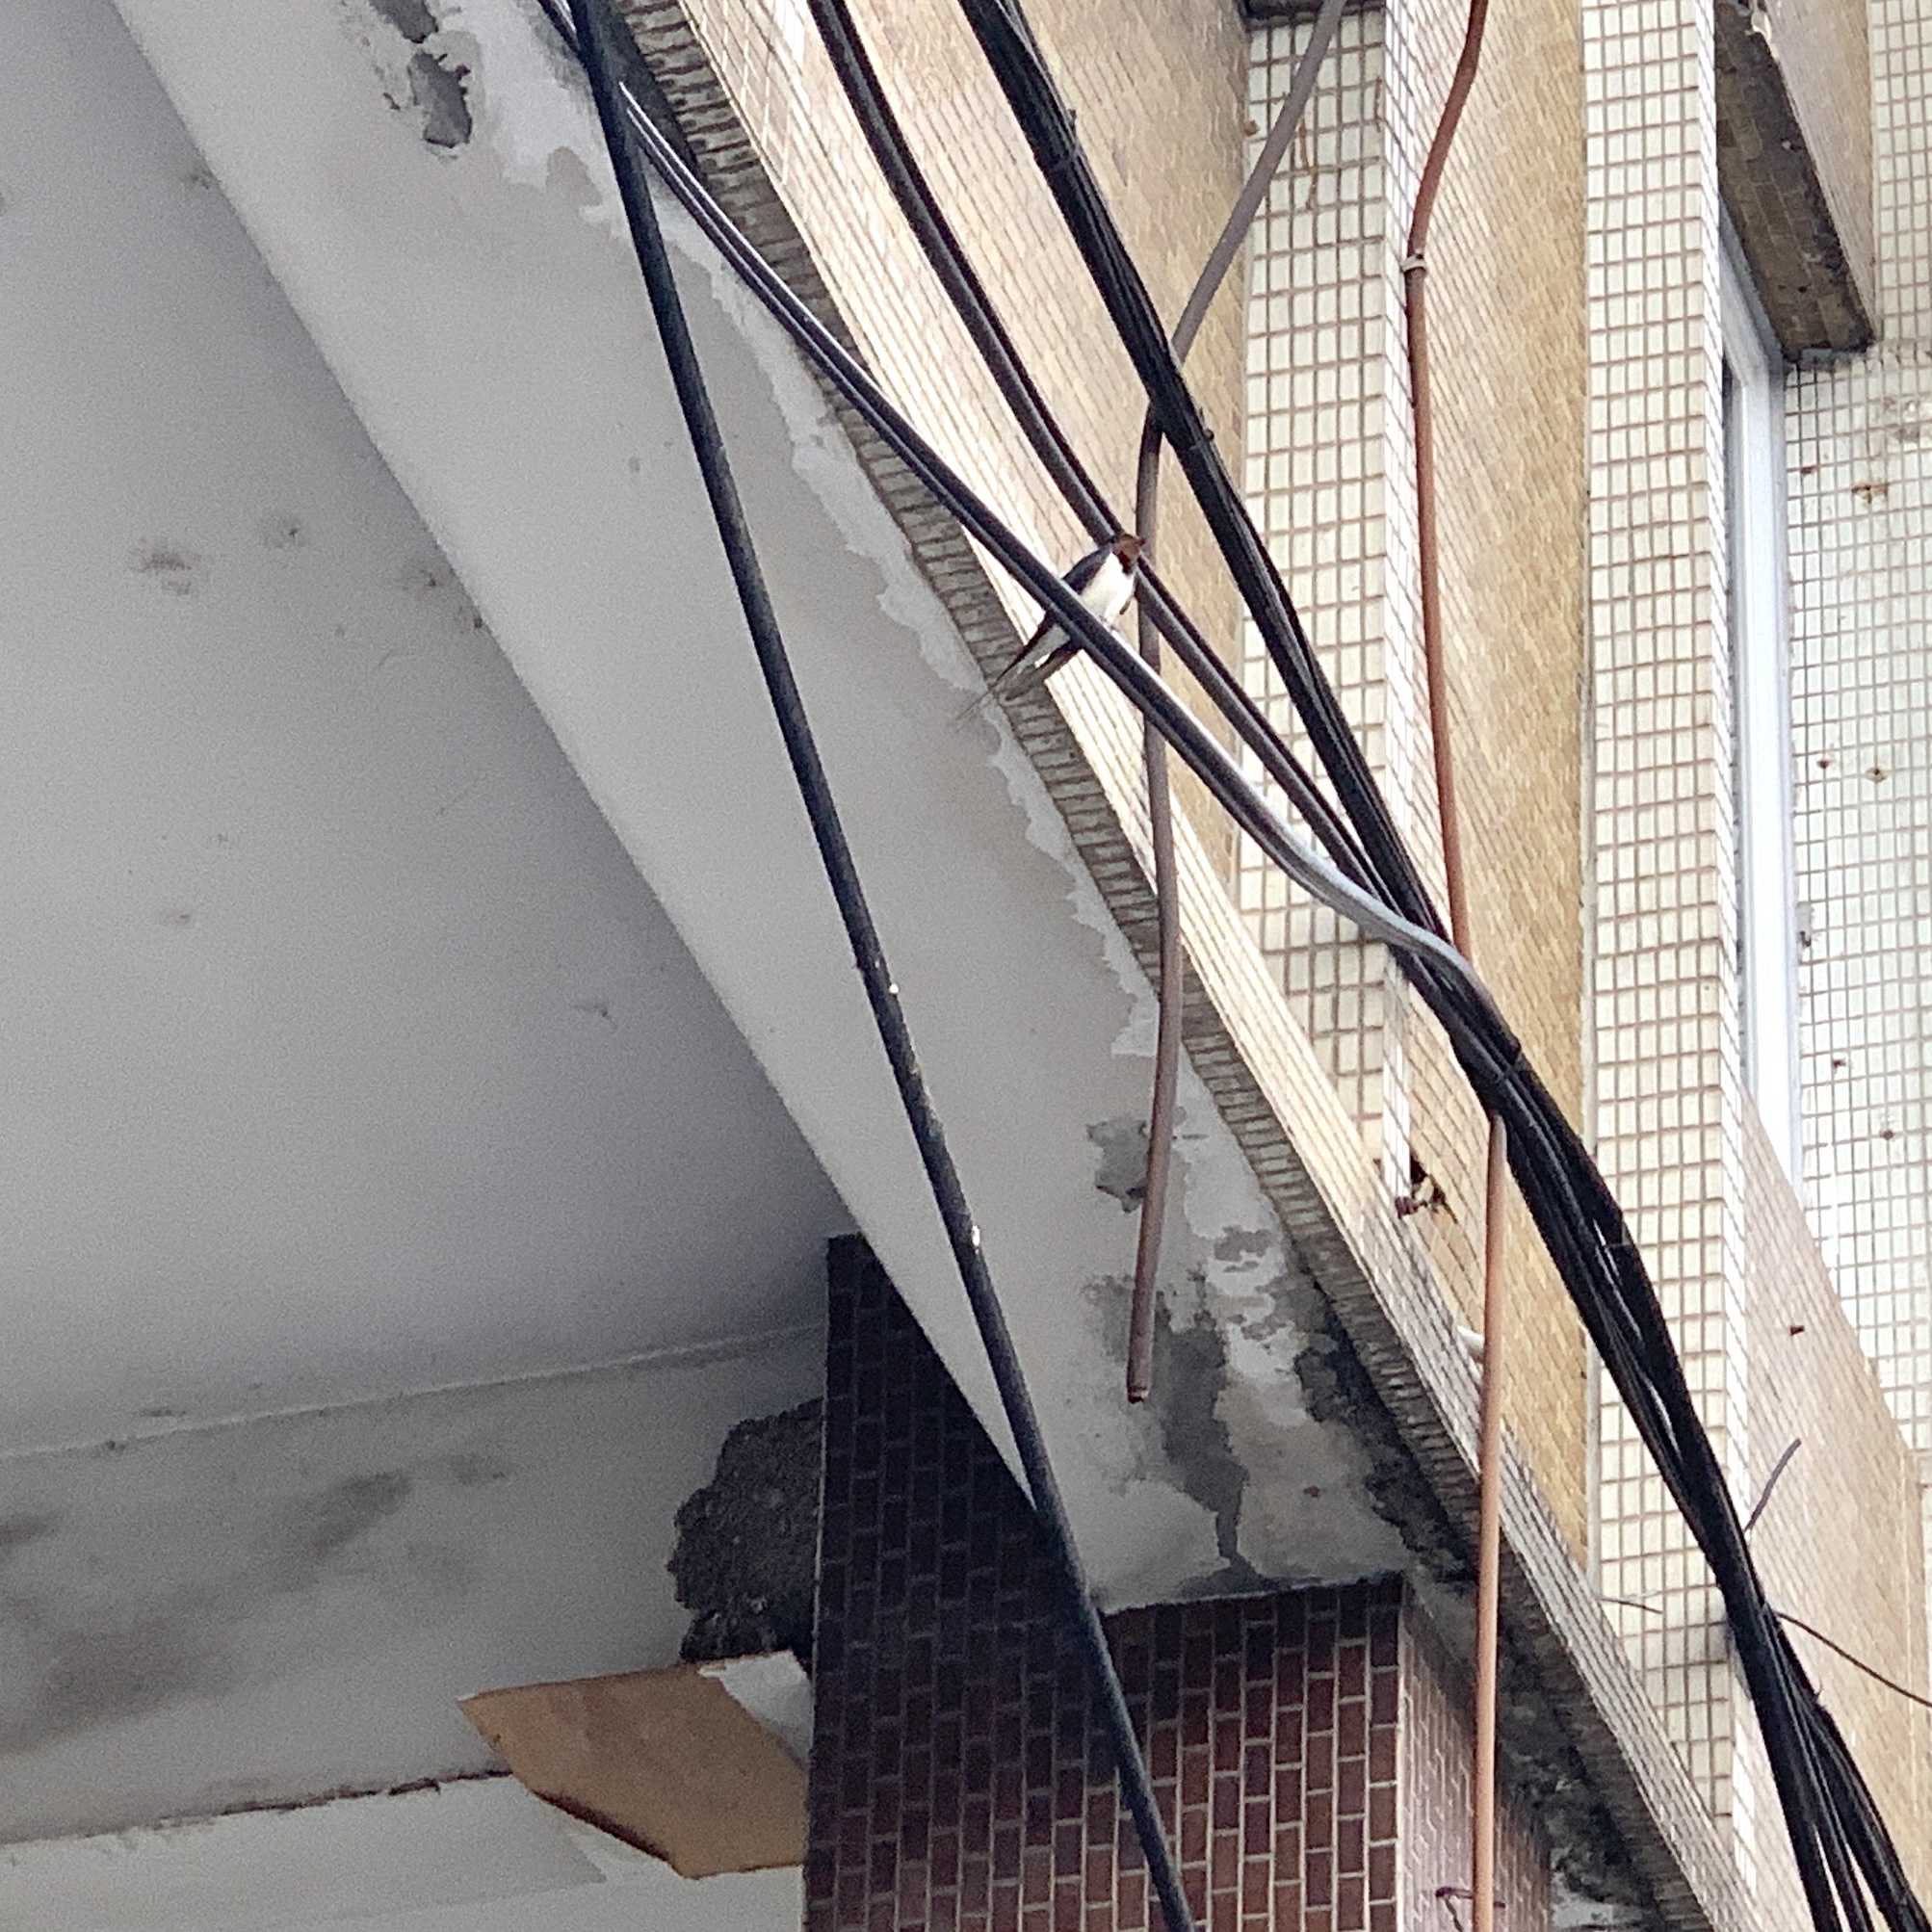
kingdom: Animalia
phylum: Chordata
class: Aves
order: Passeriformes
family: Hirundinidae
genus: Hirundo
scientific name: Hirundo rustica
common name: Barn swallow
